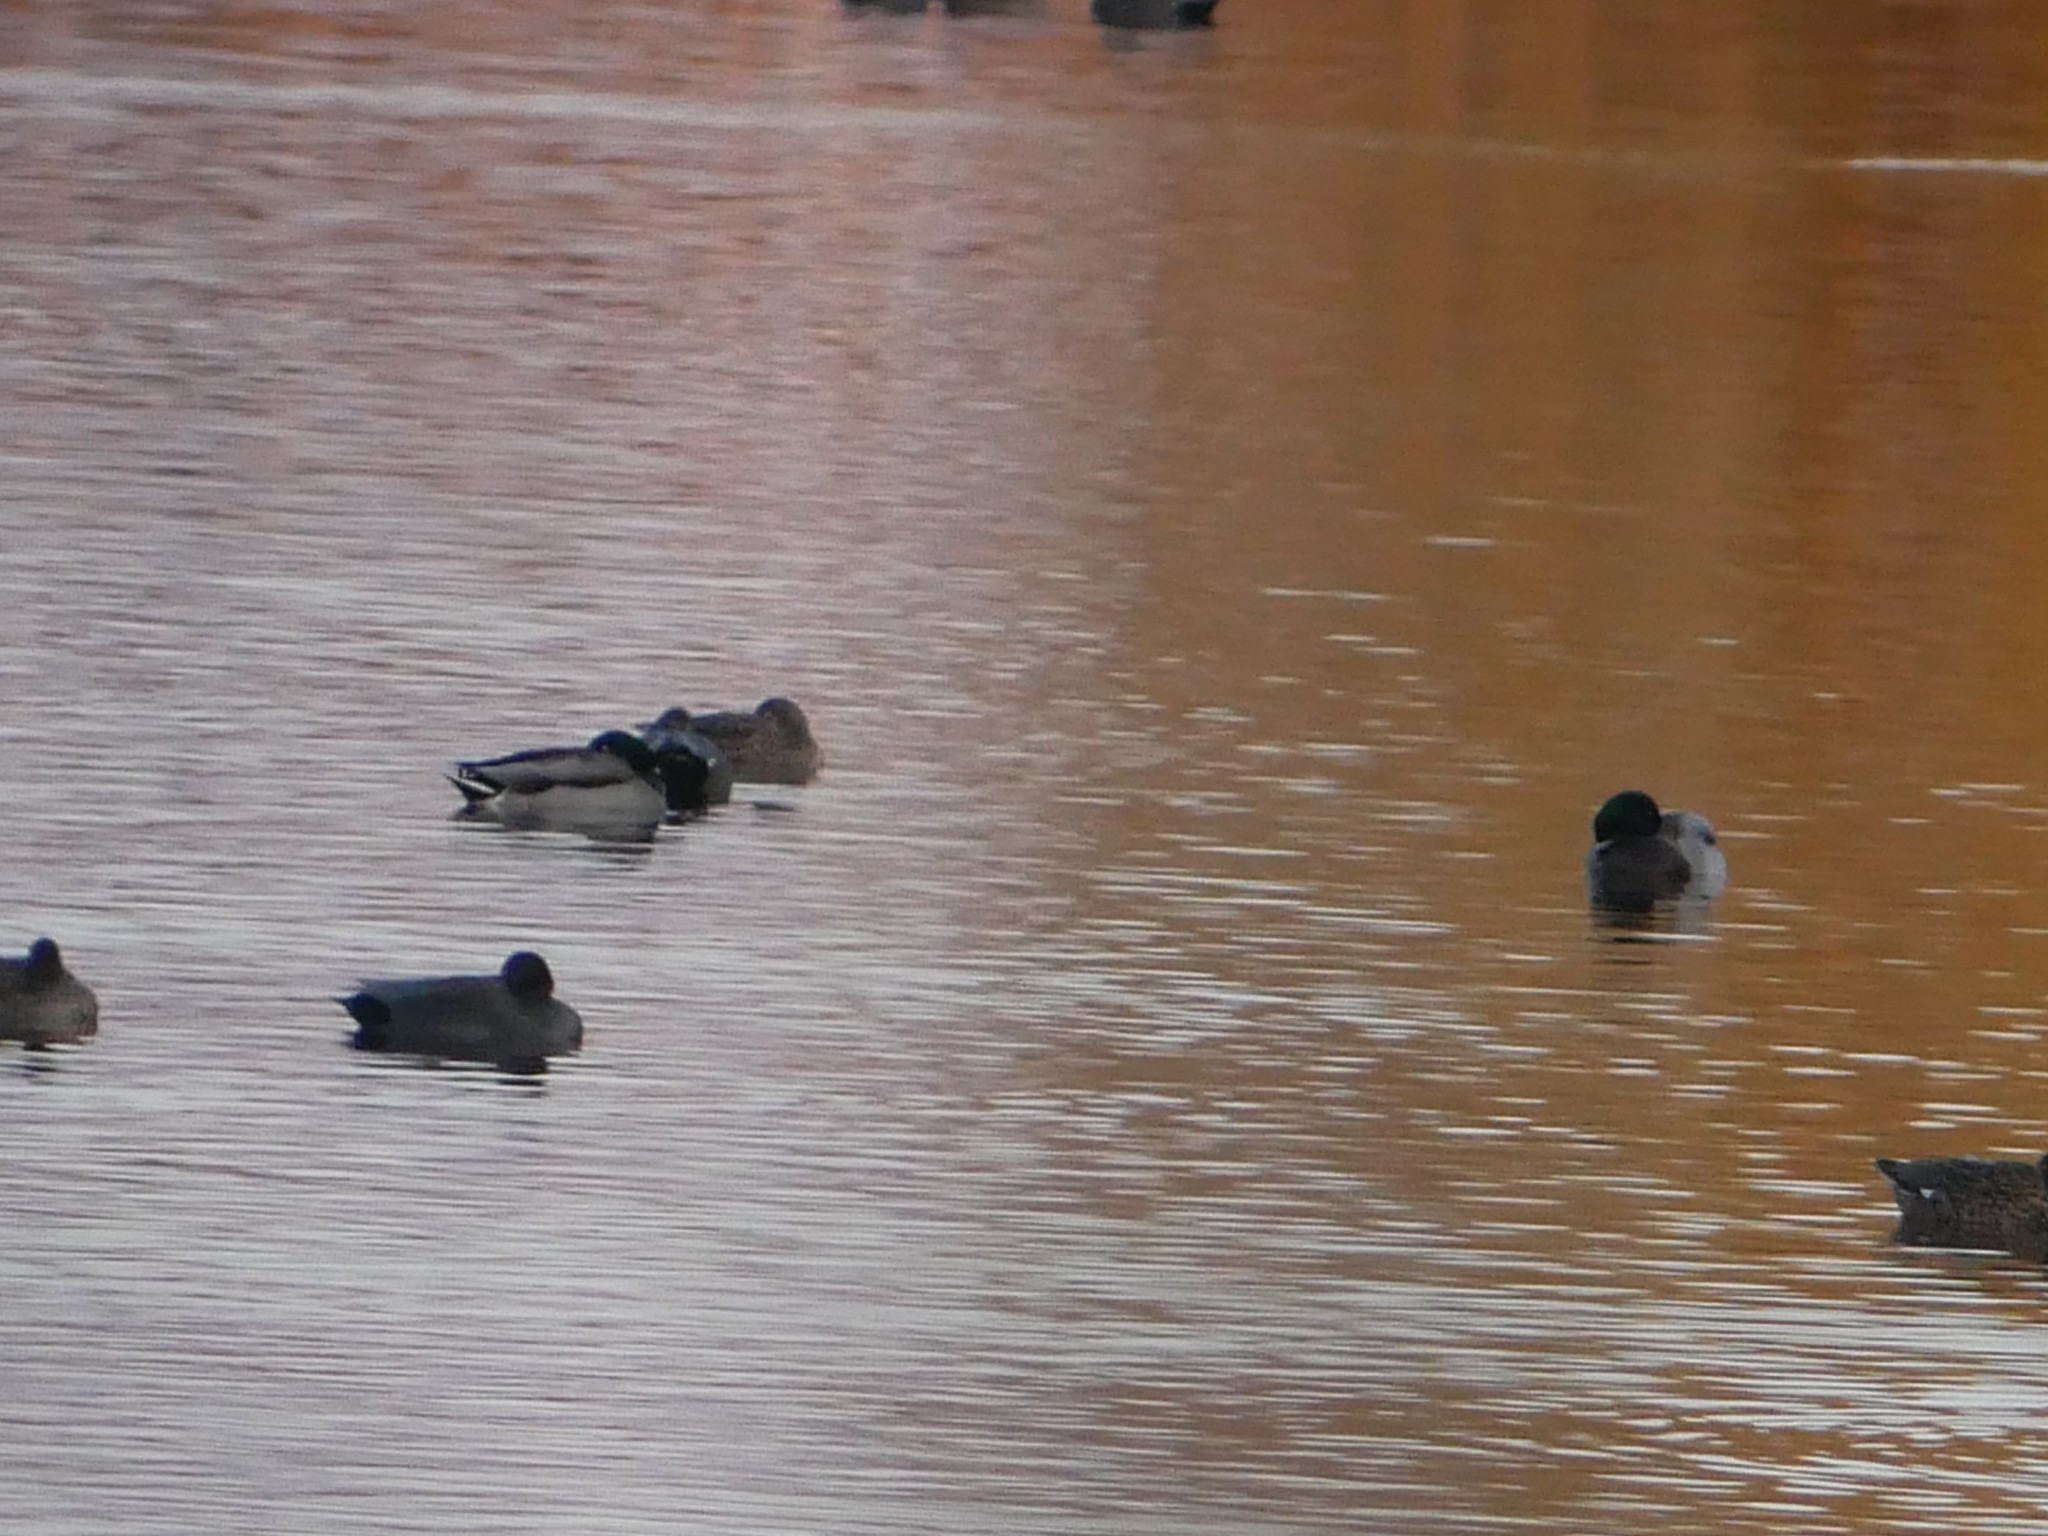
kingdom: Animalia
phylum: Chordata
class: Aves
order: Anseriformes
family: Anatidae
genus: Anas
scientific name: Anas platyrhynchos
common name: Mallard
